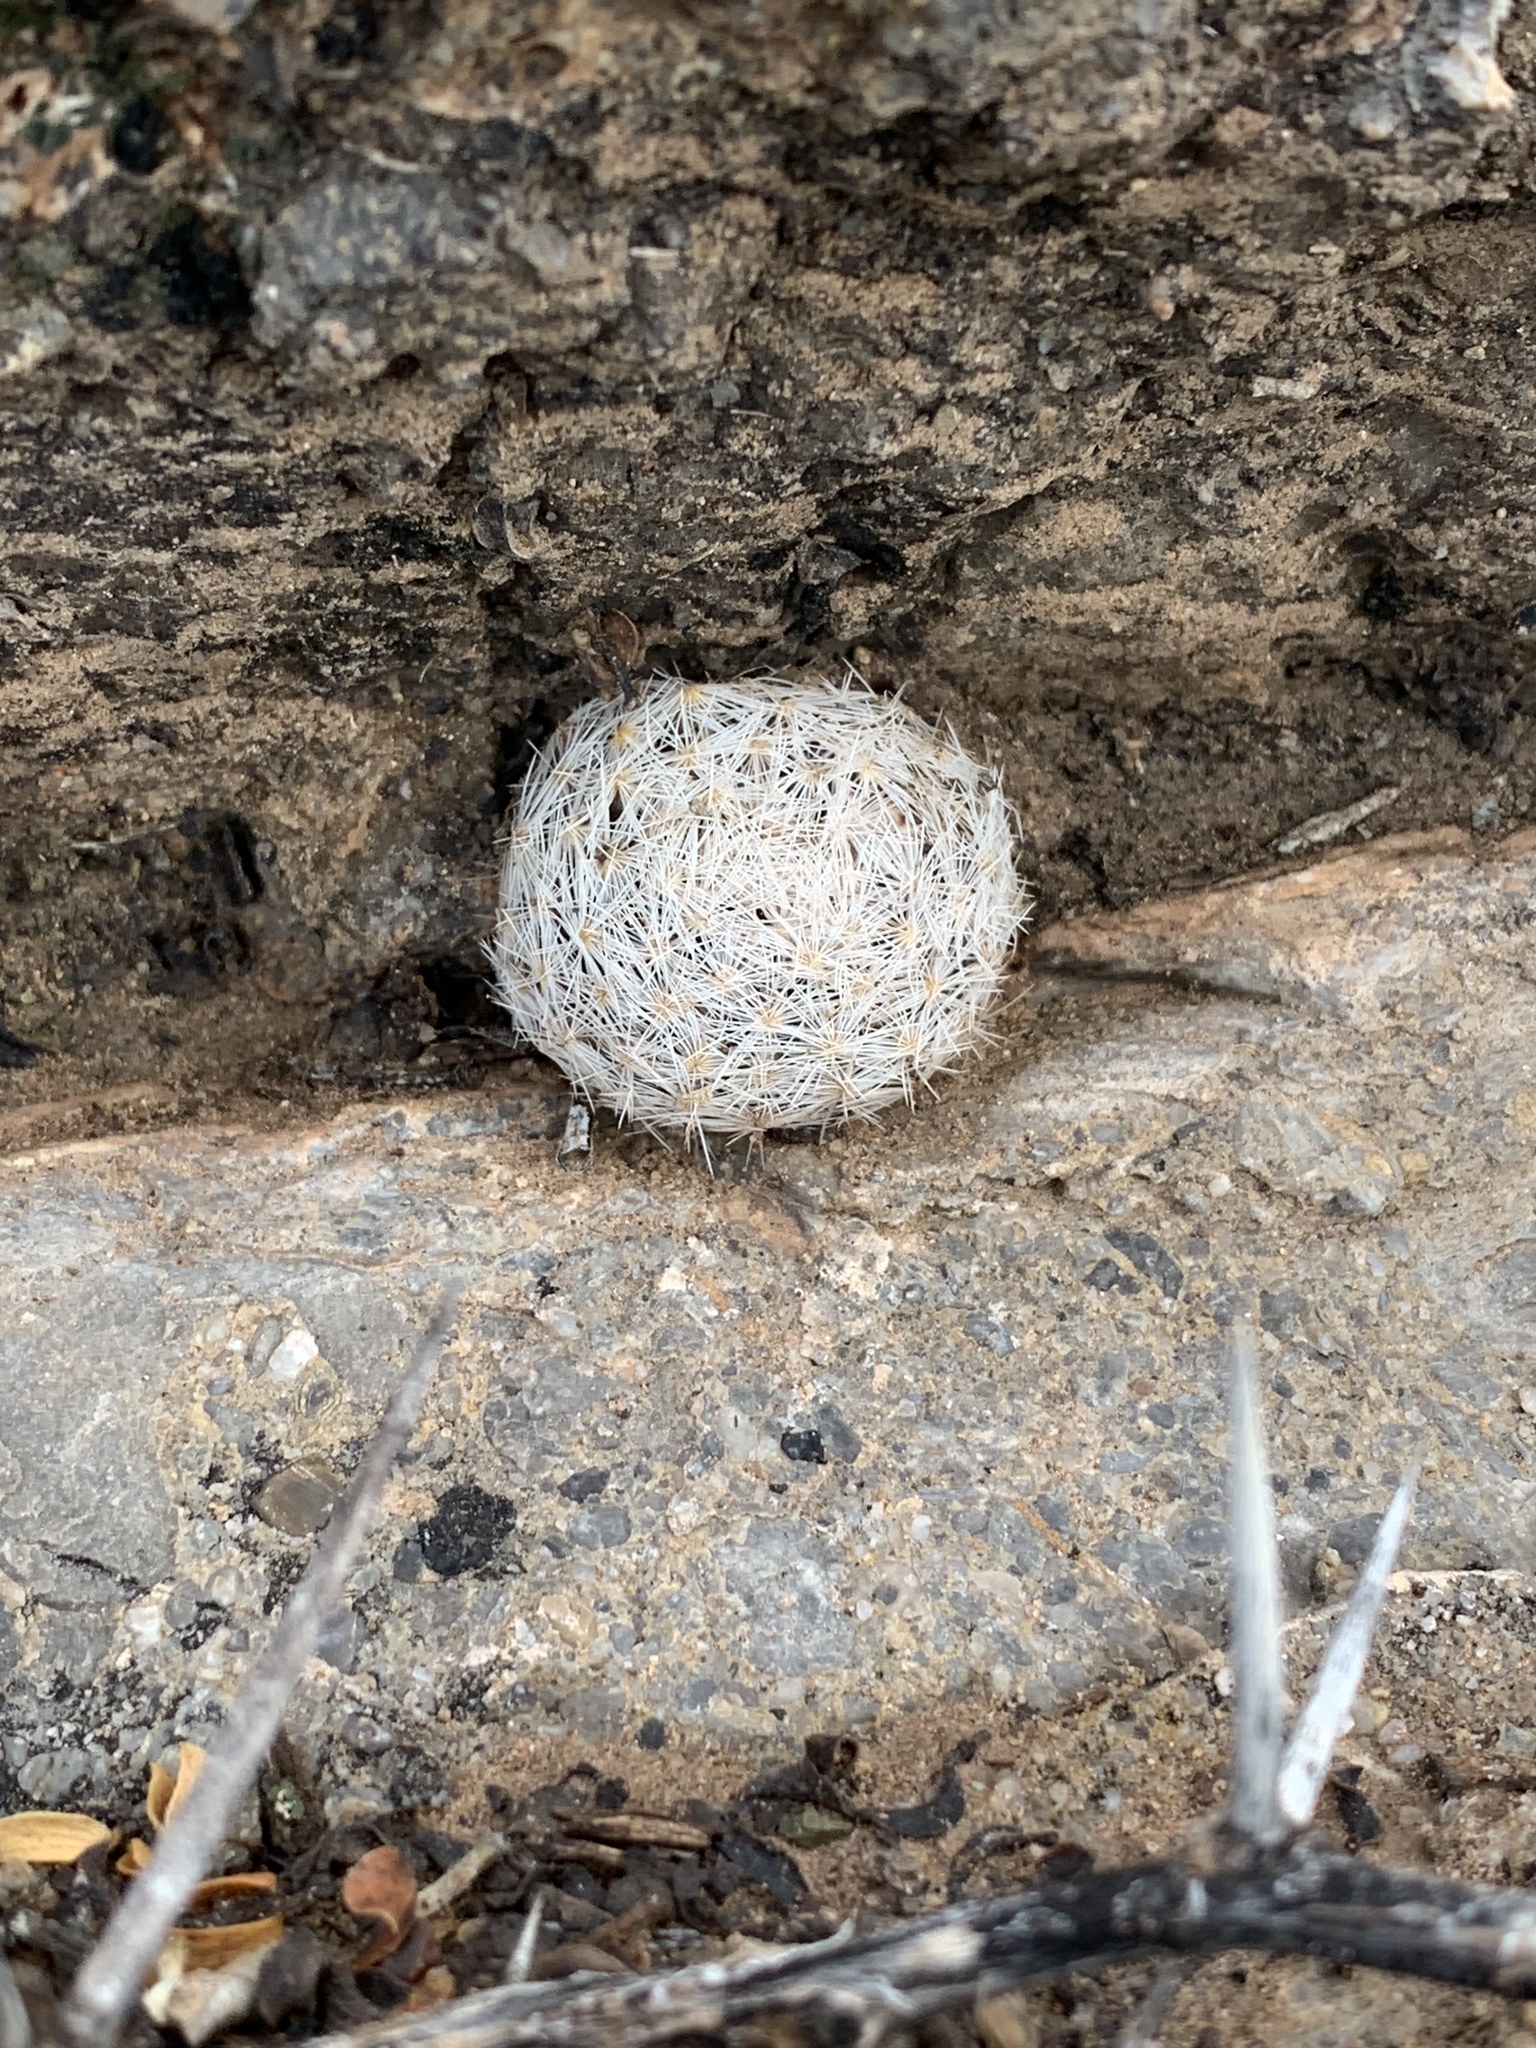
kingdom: Plantae
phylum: Tracheophyta
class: Magnoliopsida
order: Caryophyllales
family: Cactaceae
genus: Mammillaria
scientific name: Mammillaria lasiacantha
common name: Lace-spine nipple cactus
